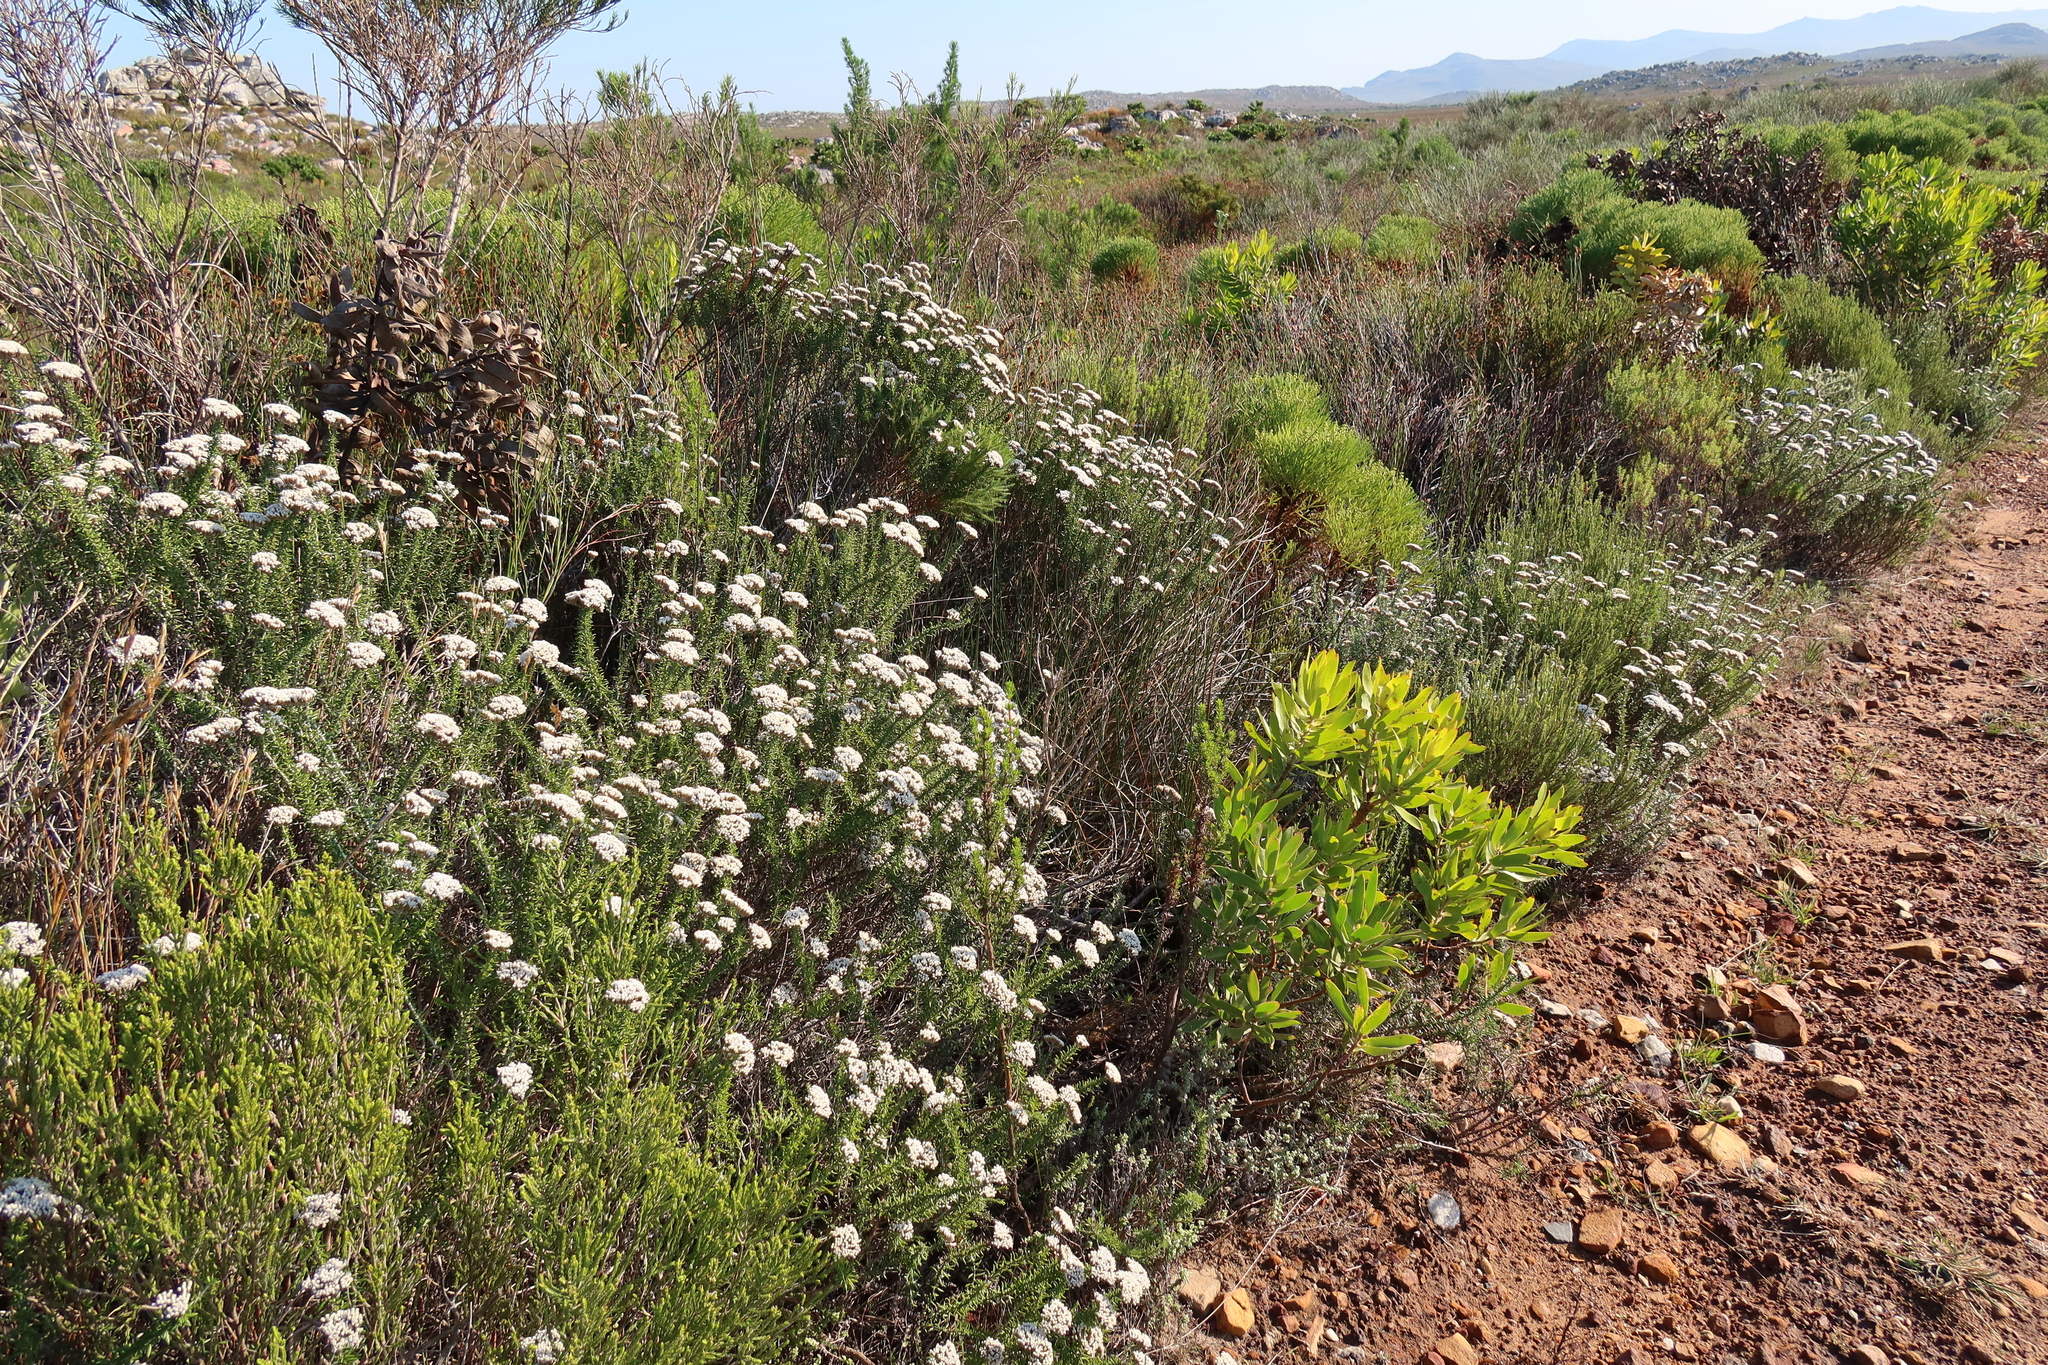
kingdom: Plantae
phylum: Tracheophyta
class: Magnoliopsida
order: Asterales
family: Asteraceae
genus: Metalasia
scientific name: Metalasia densa
